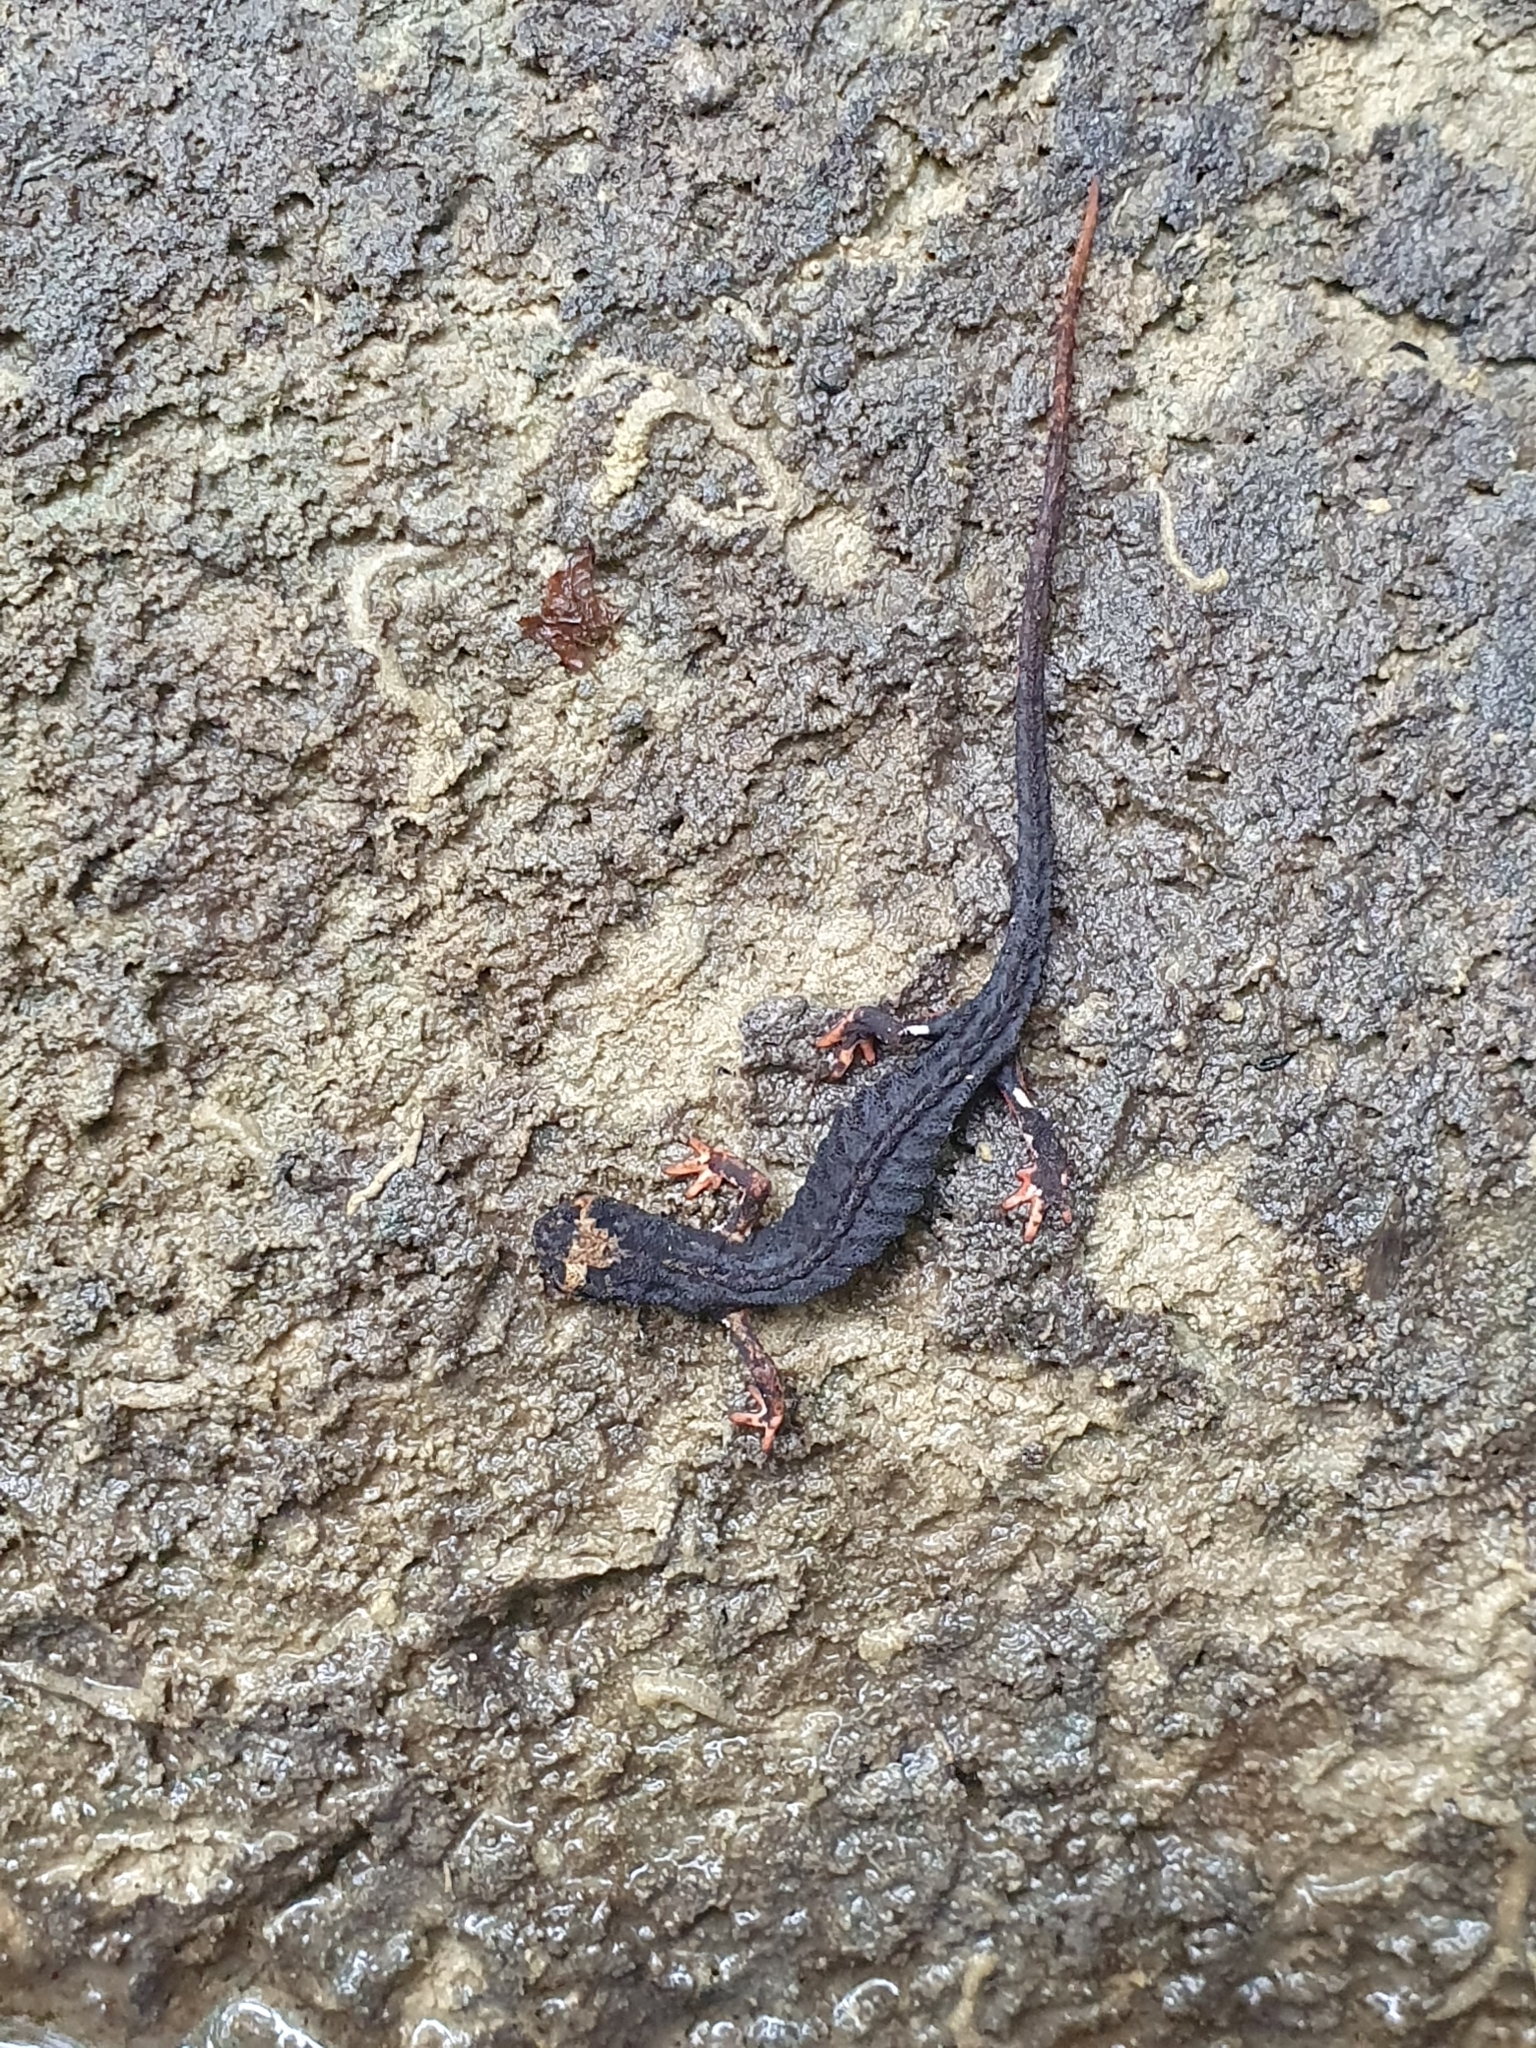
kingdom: Animalia
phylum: Chordata
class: Amphibia
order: Caudata
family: Salamandridae
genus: Salamandrina
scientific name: Salamandrina terdigitata
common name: Southern spectacled salamander
